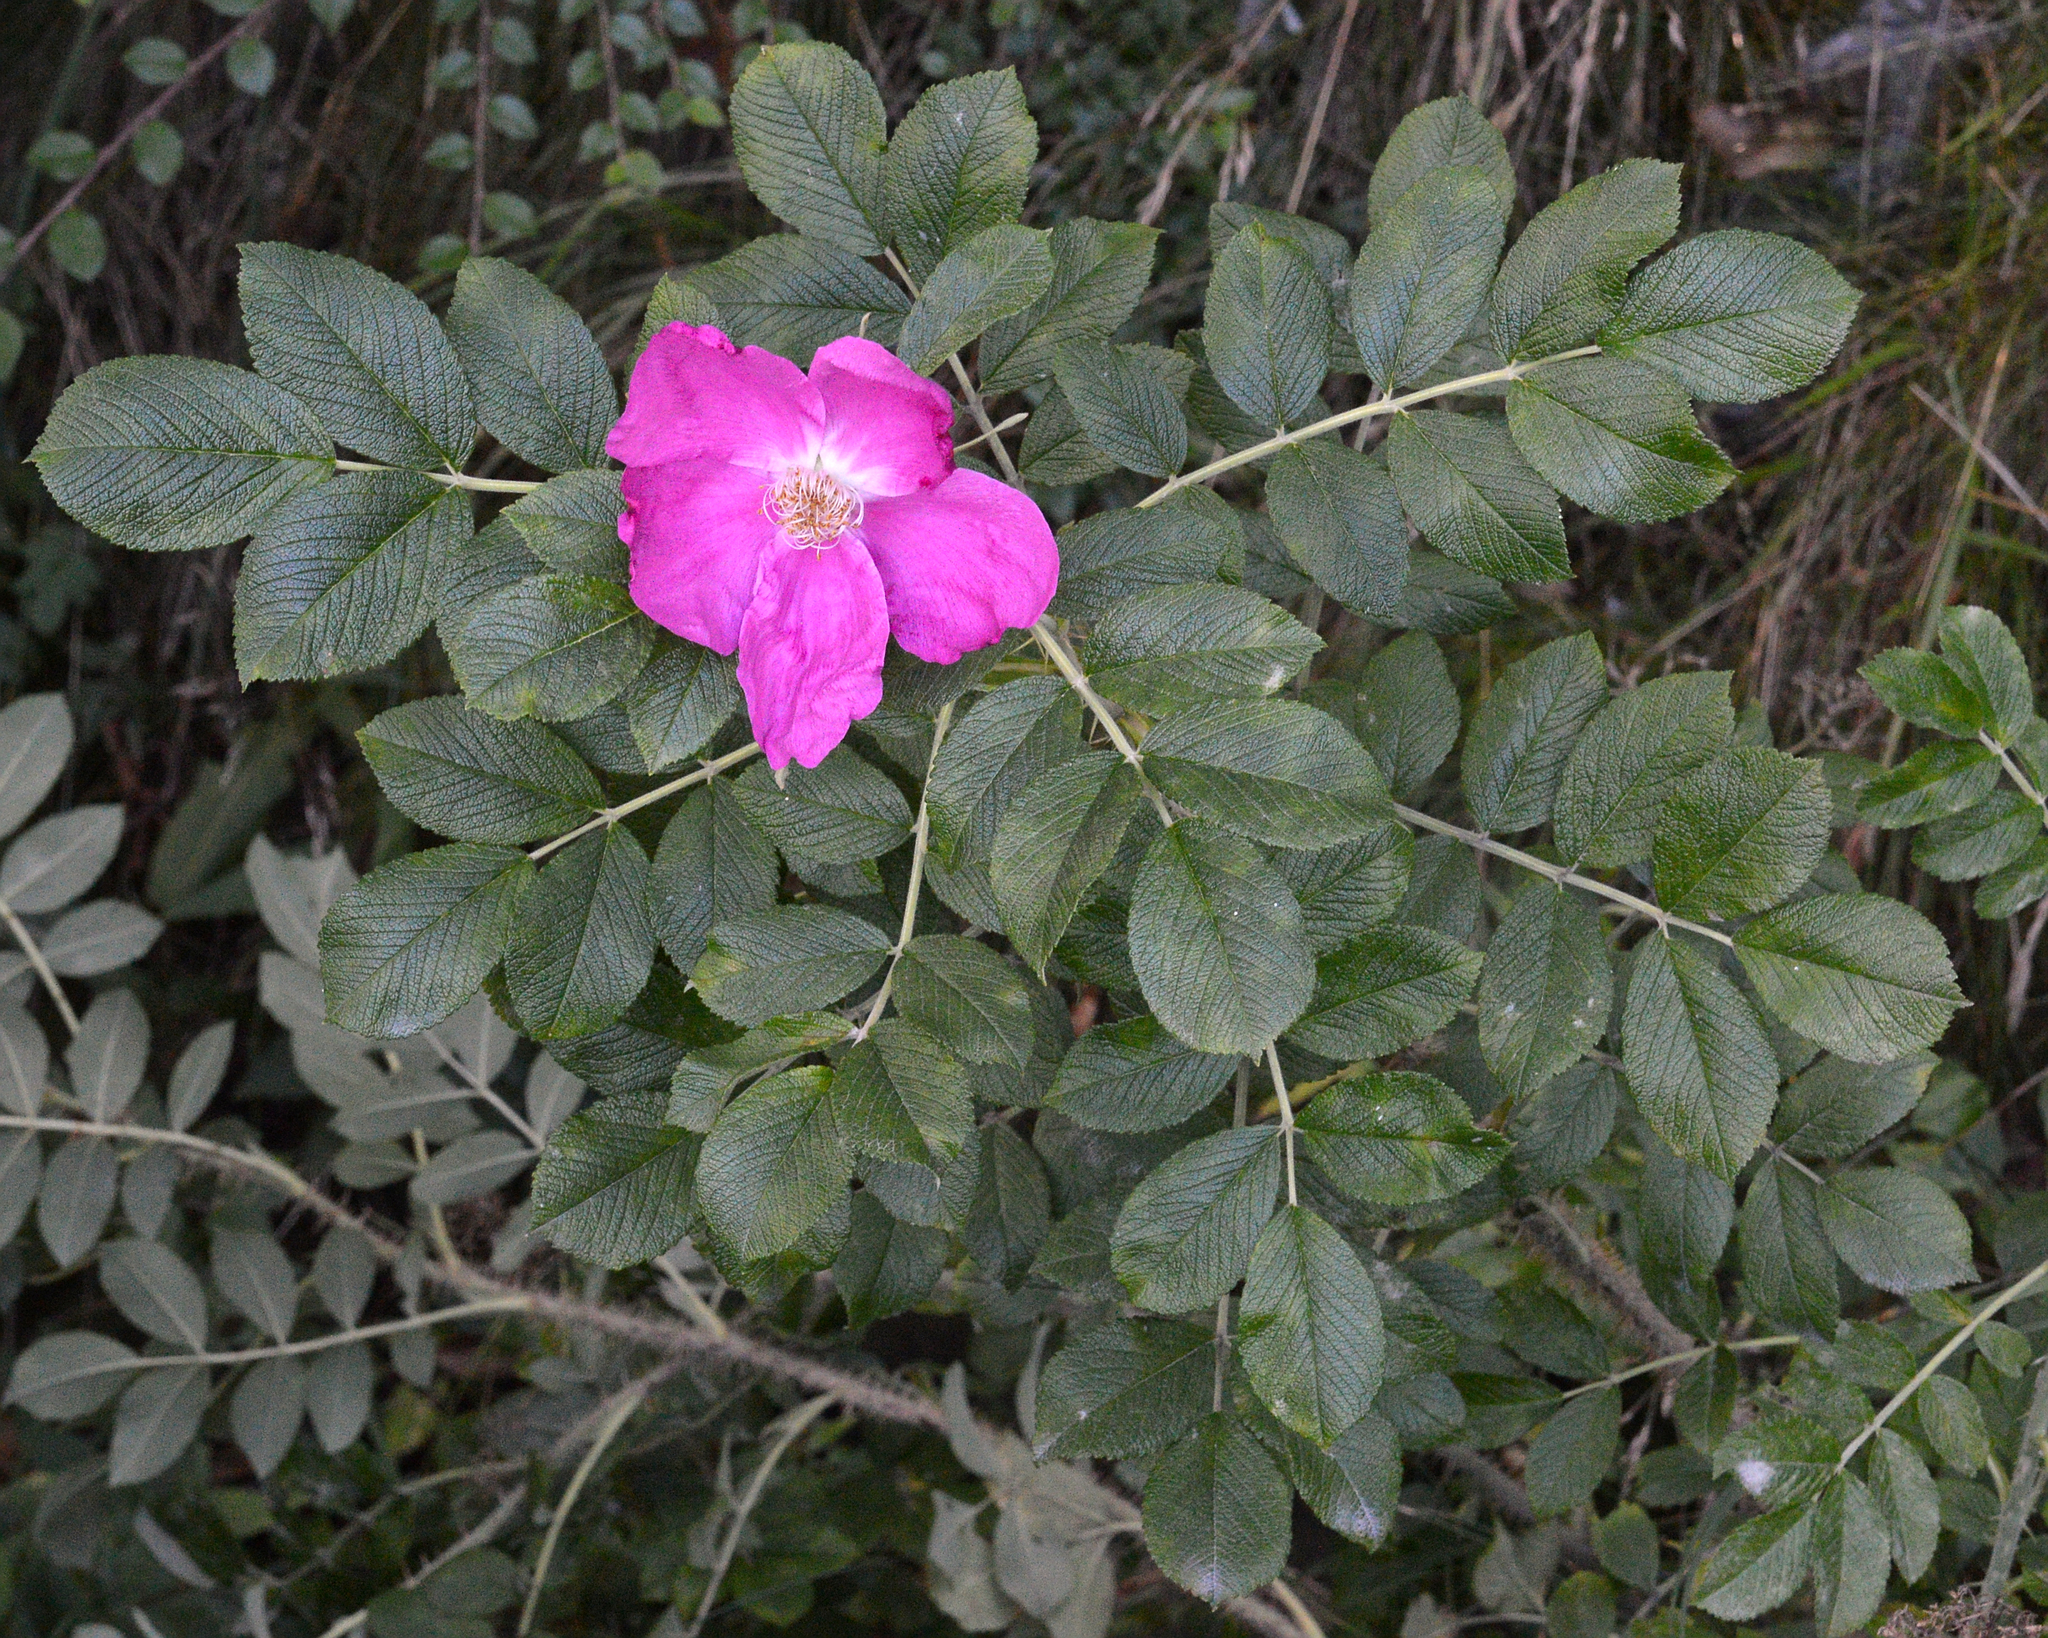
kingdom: Plantae
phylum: Tracheophyta
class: Magnoliopsida
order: Rosales
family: Rosaceae
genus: Rosa
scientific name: Rosa rugosa
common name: Japanese rose
